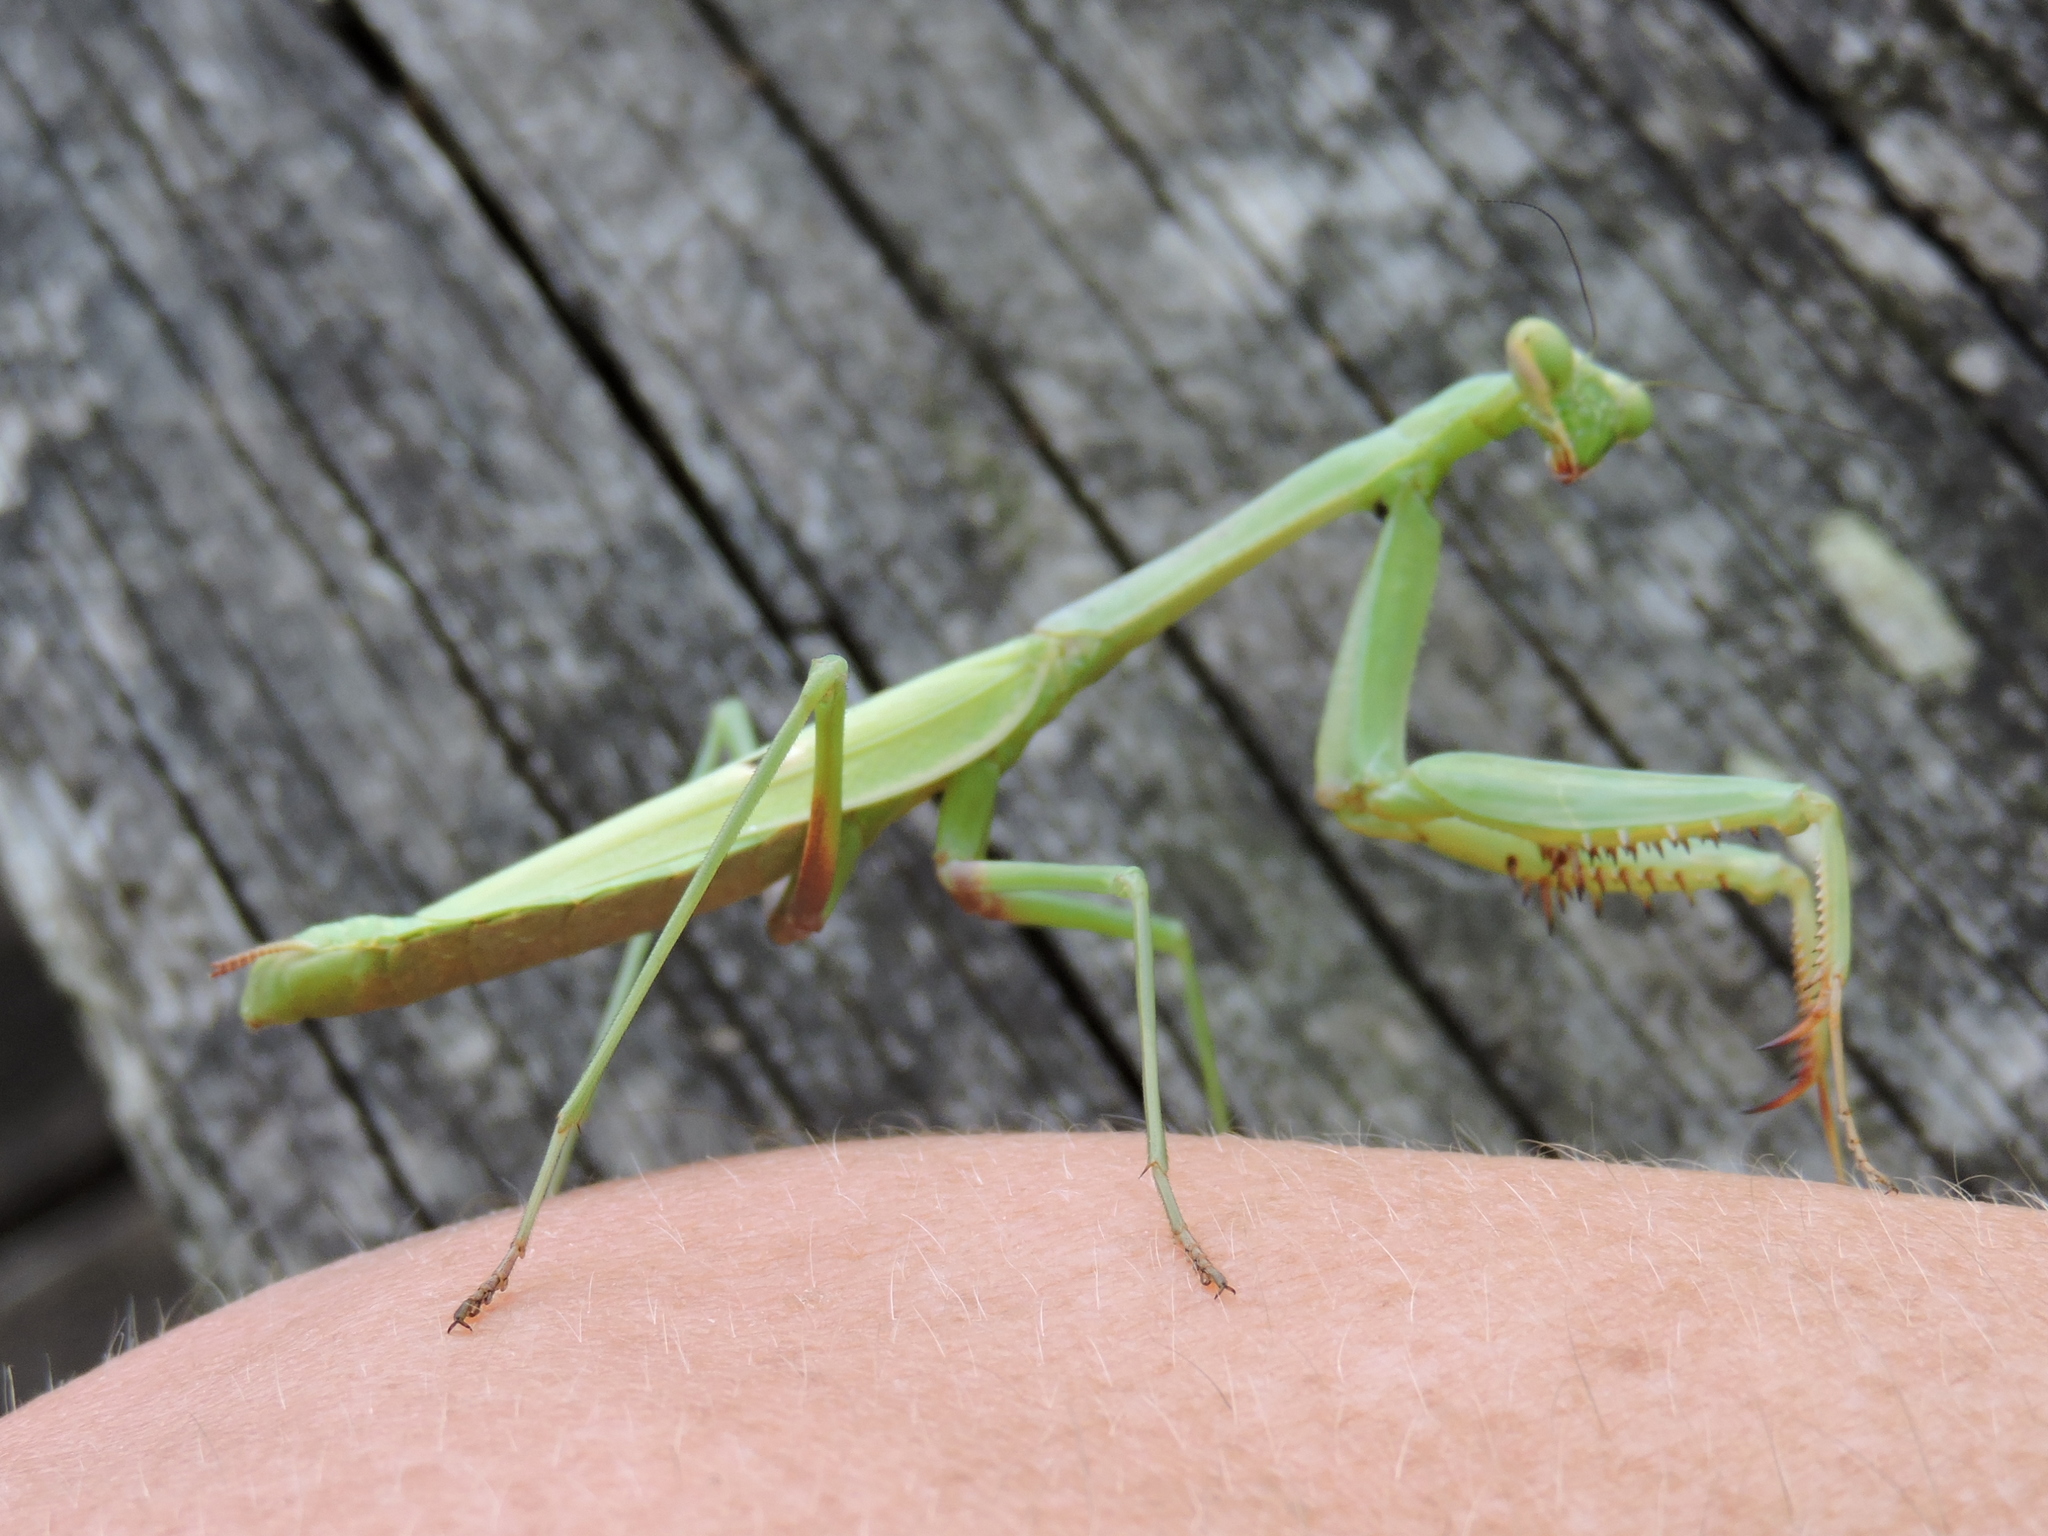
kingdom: Animalia
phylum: Arthropoda
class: Insecta
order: Mantodea
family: Mantidae
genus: Stagmomantis
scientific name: Stagmomantis carolina
